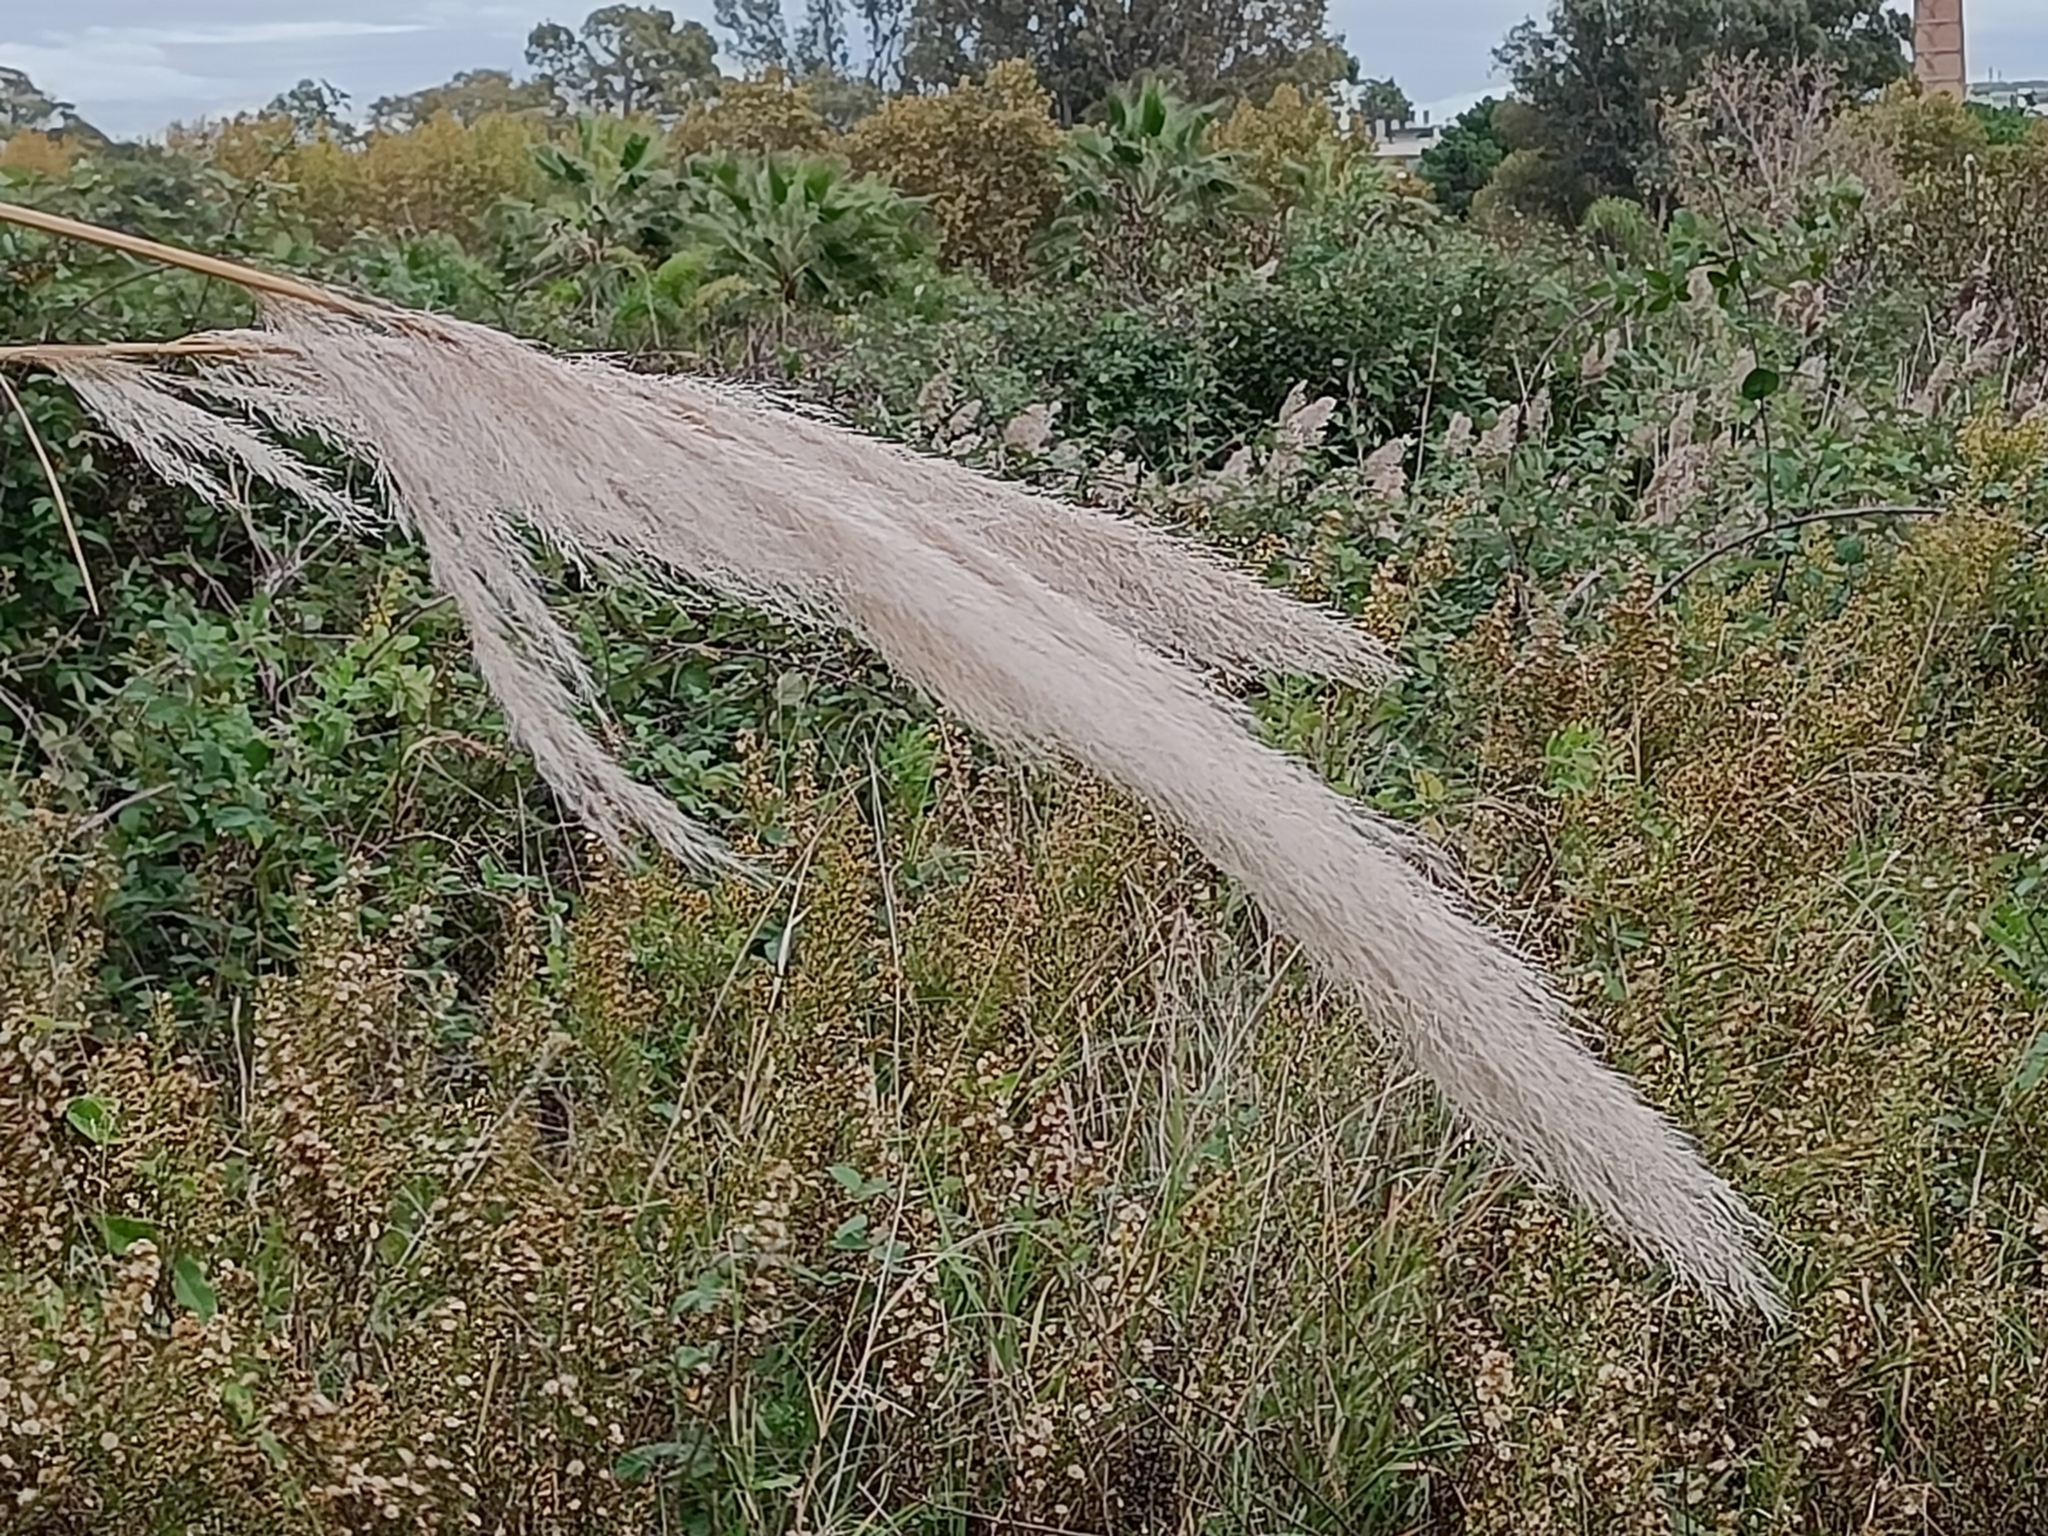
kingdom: Plantae
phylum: Tracheophyta
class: Liliopsida
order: Poales
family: Poaceae
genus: Cortaderia
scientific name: Cortaderia selloana
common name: Uruguayan pampas grass
